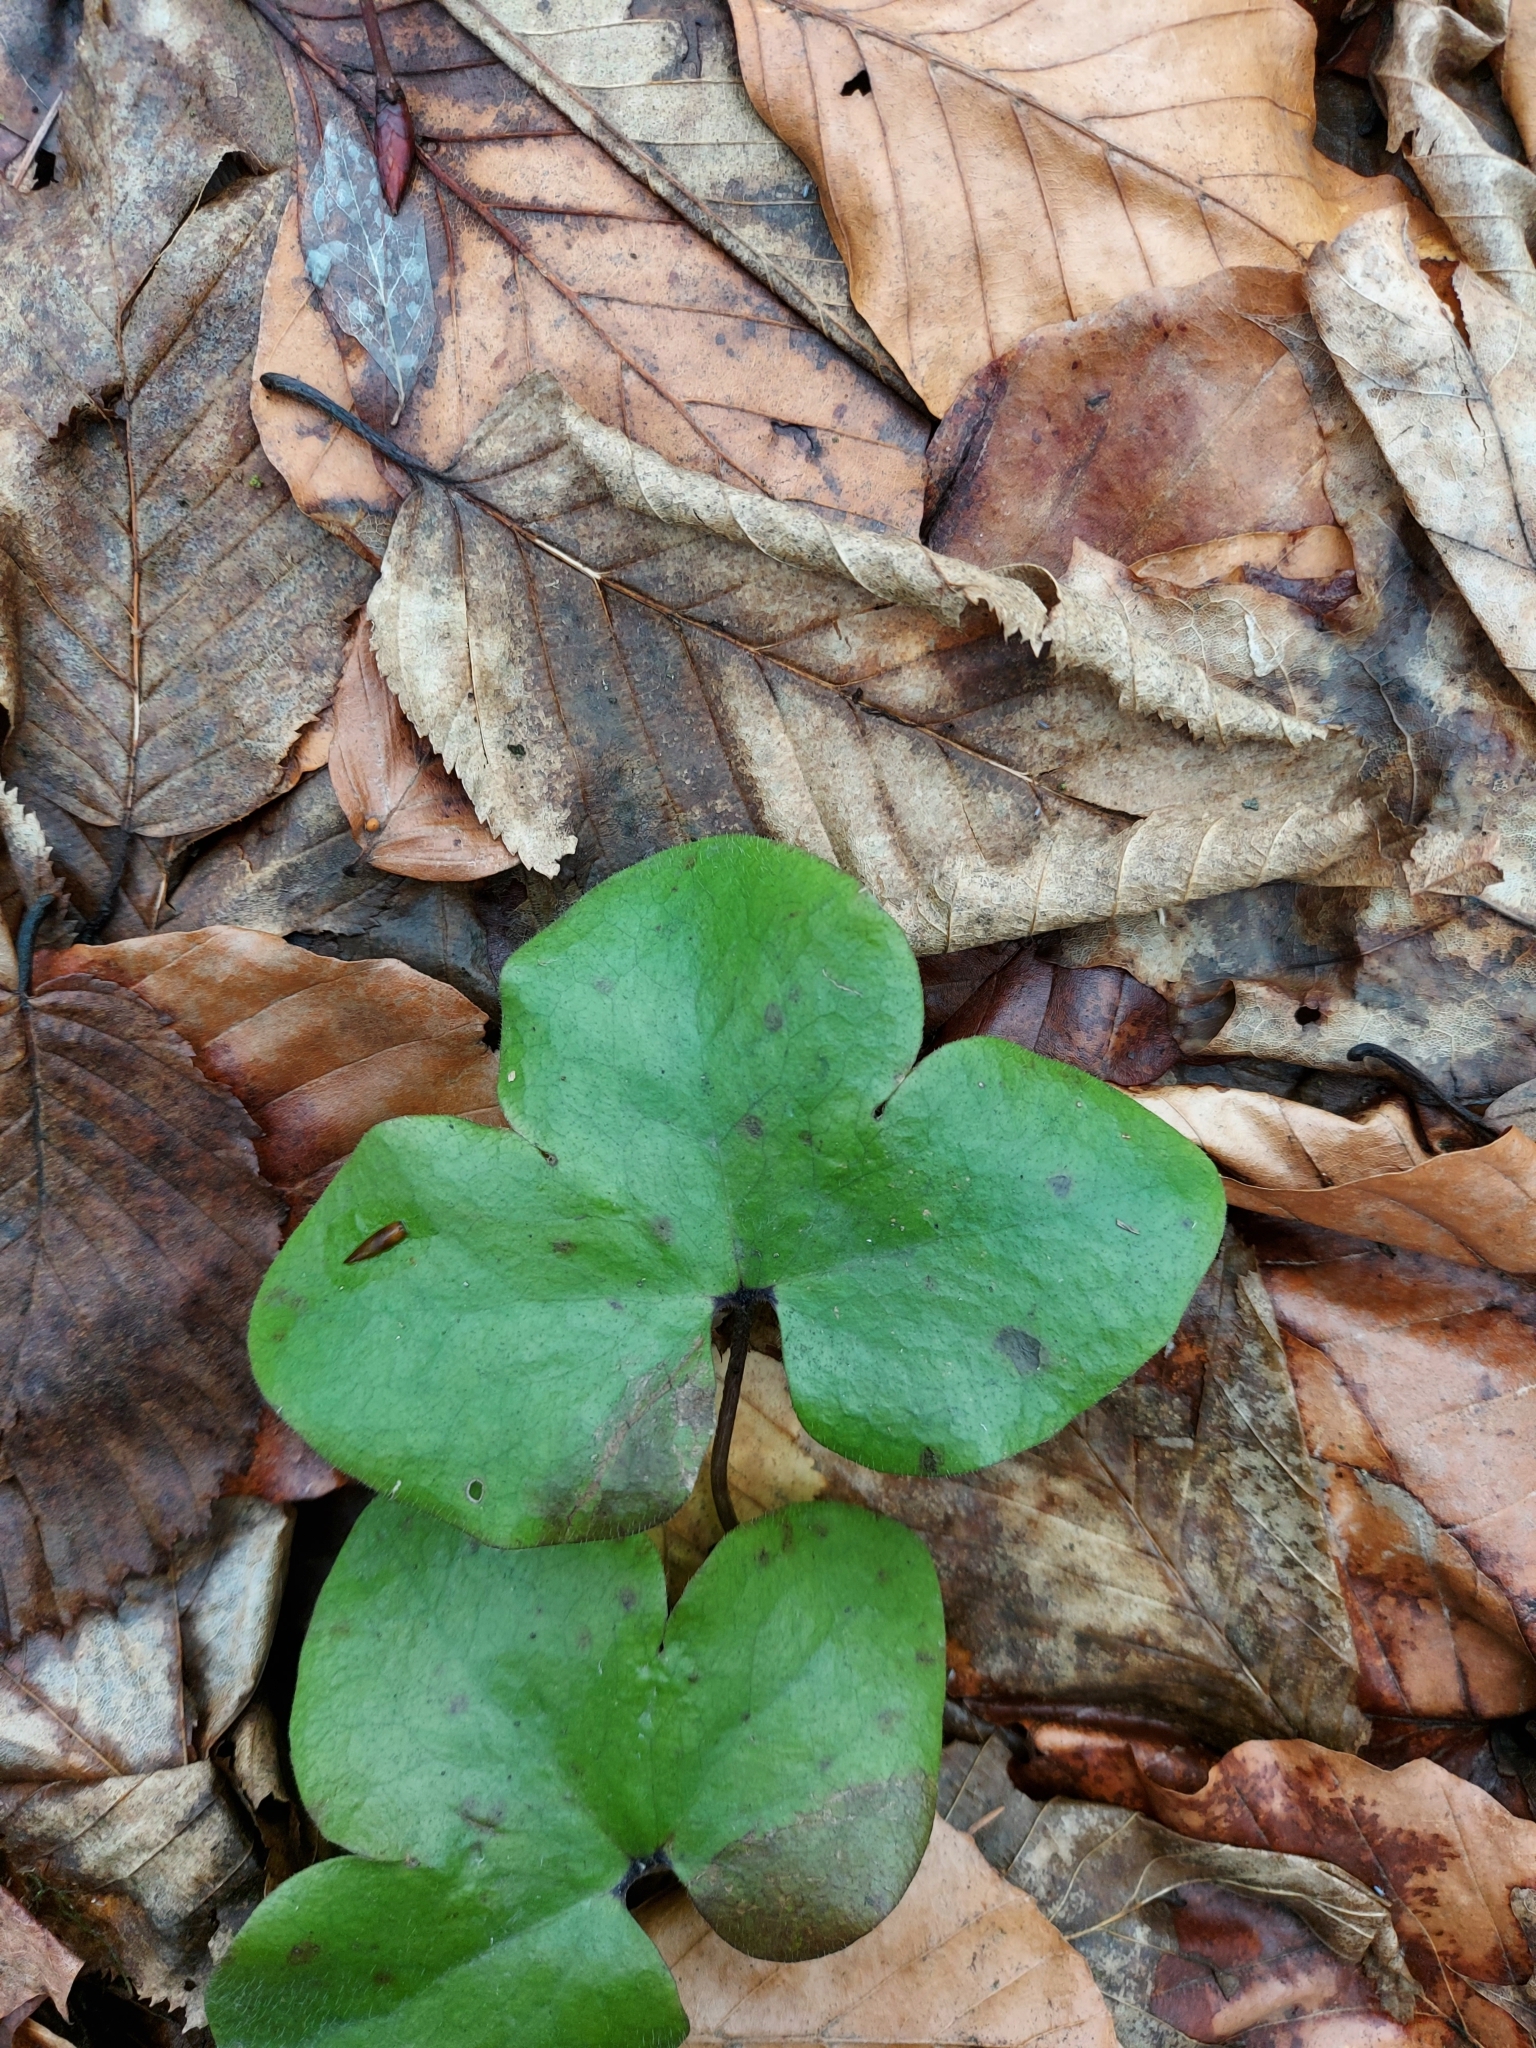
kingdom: Plantae
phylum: Tracheophyta
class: Magnoliopsida
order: Ranunculales
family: Ranunculaceae
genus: Hepatica
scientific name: Hepatica nobilis
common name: Liverleaf
